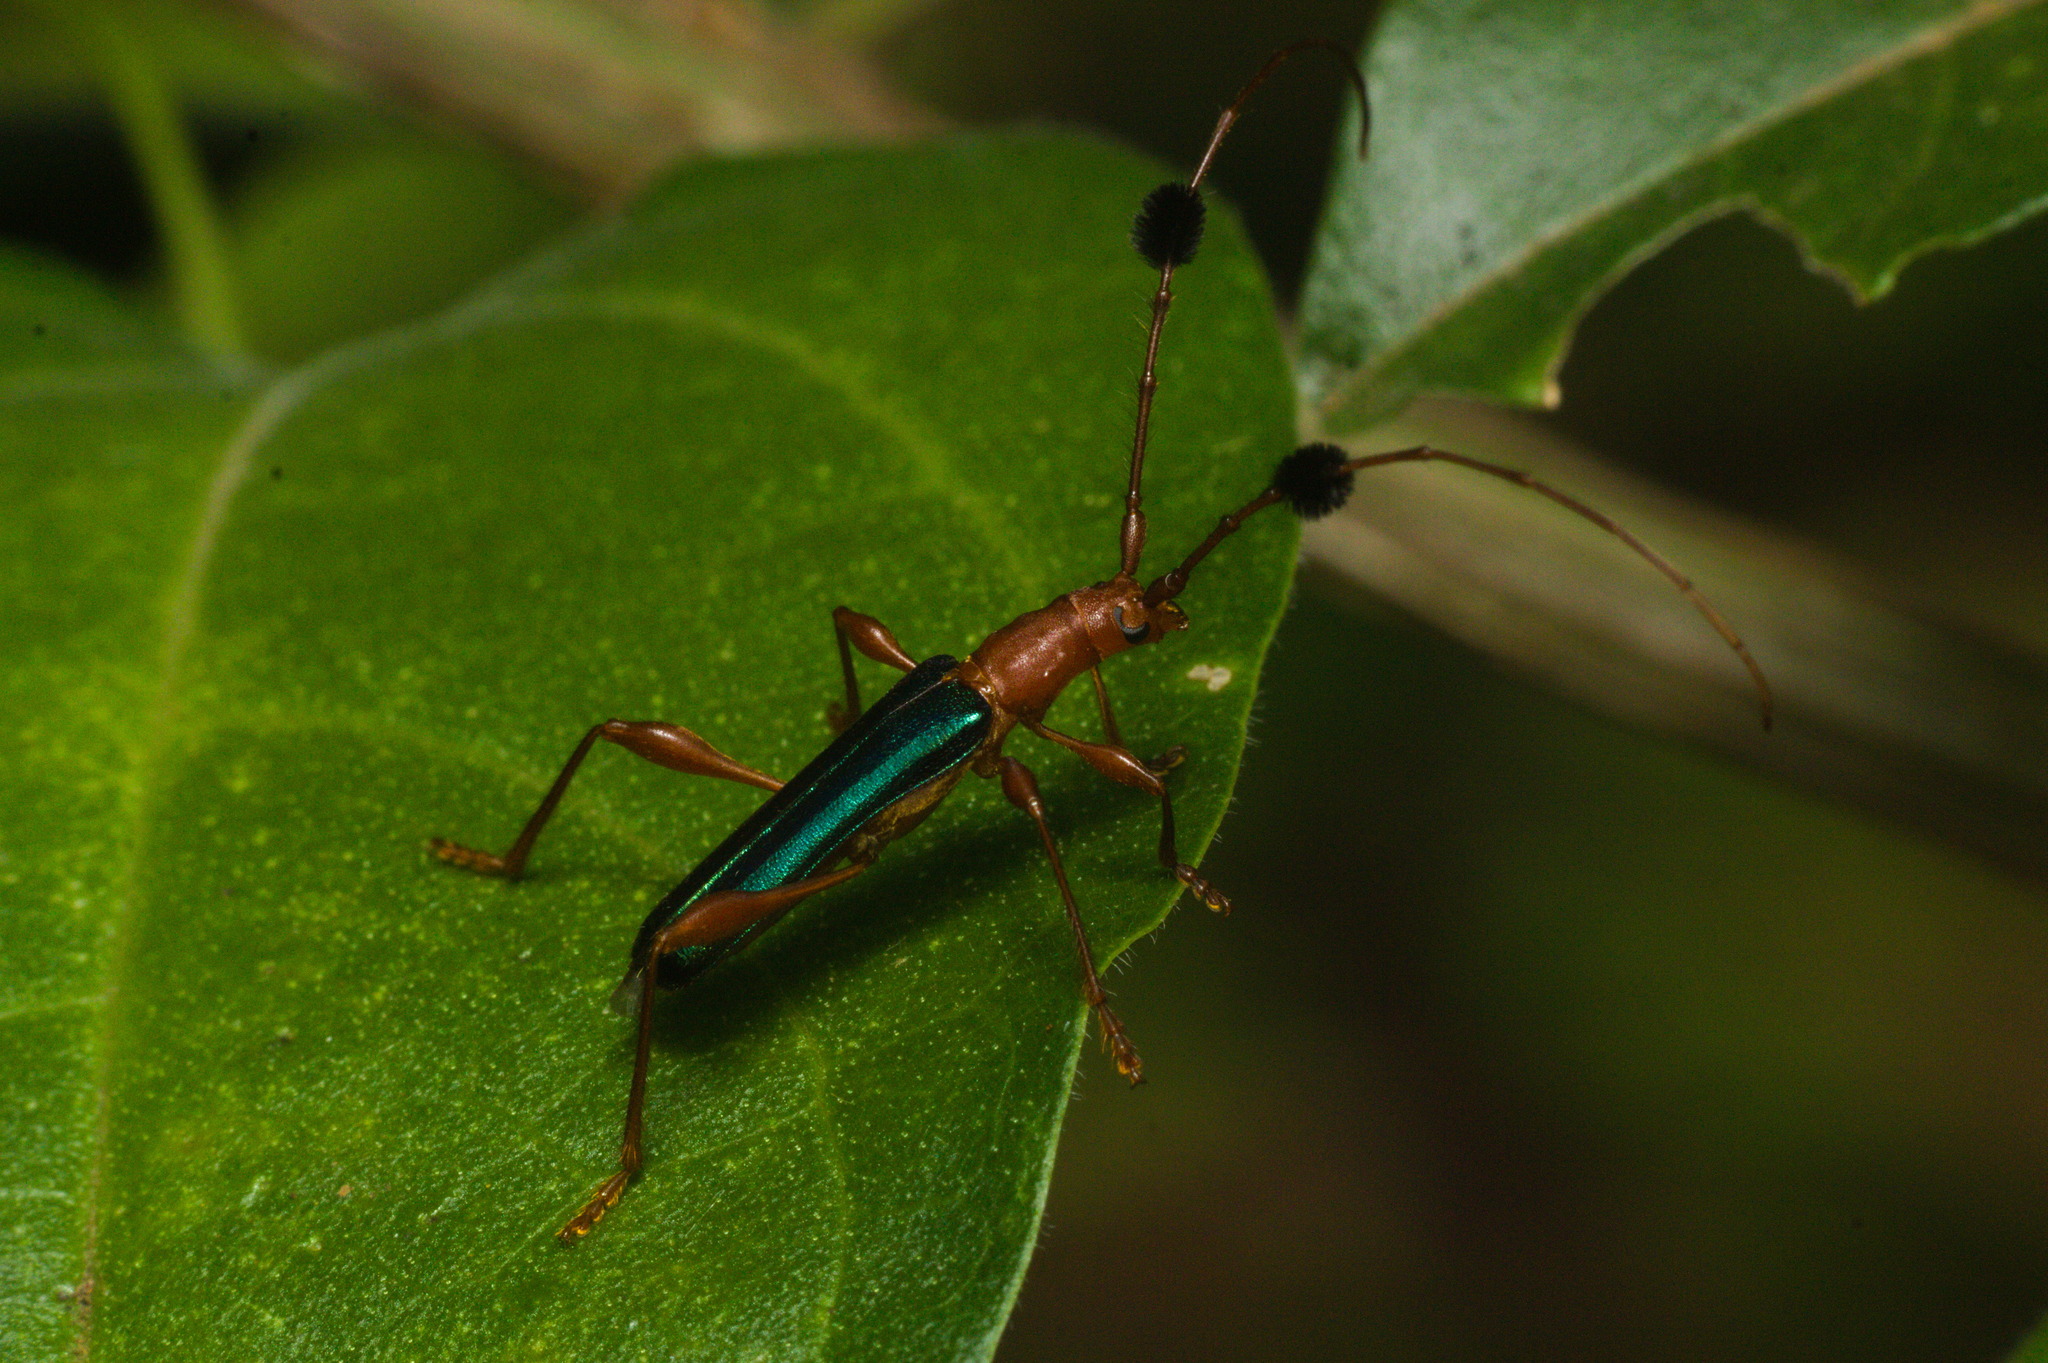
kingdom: Animalia
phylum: Arthropoda
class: Insecta
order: Coleoptera
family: Cerambycidae
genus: Unxia
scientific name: Unxia gracilior
